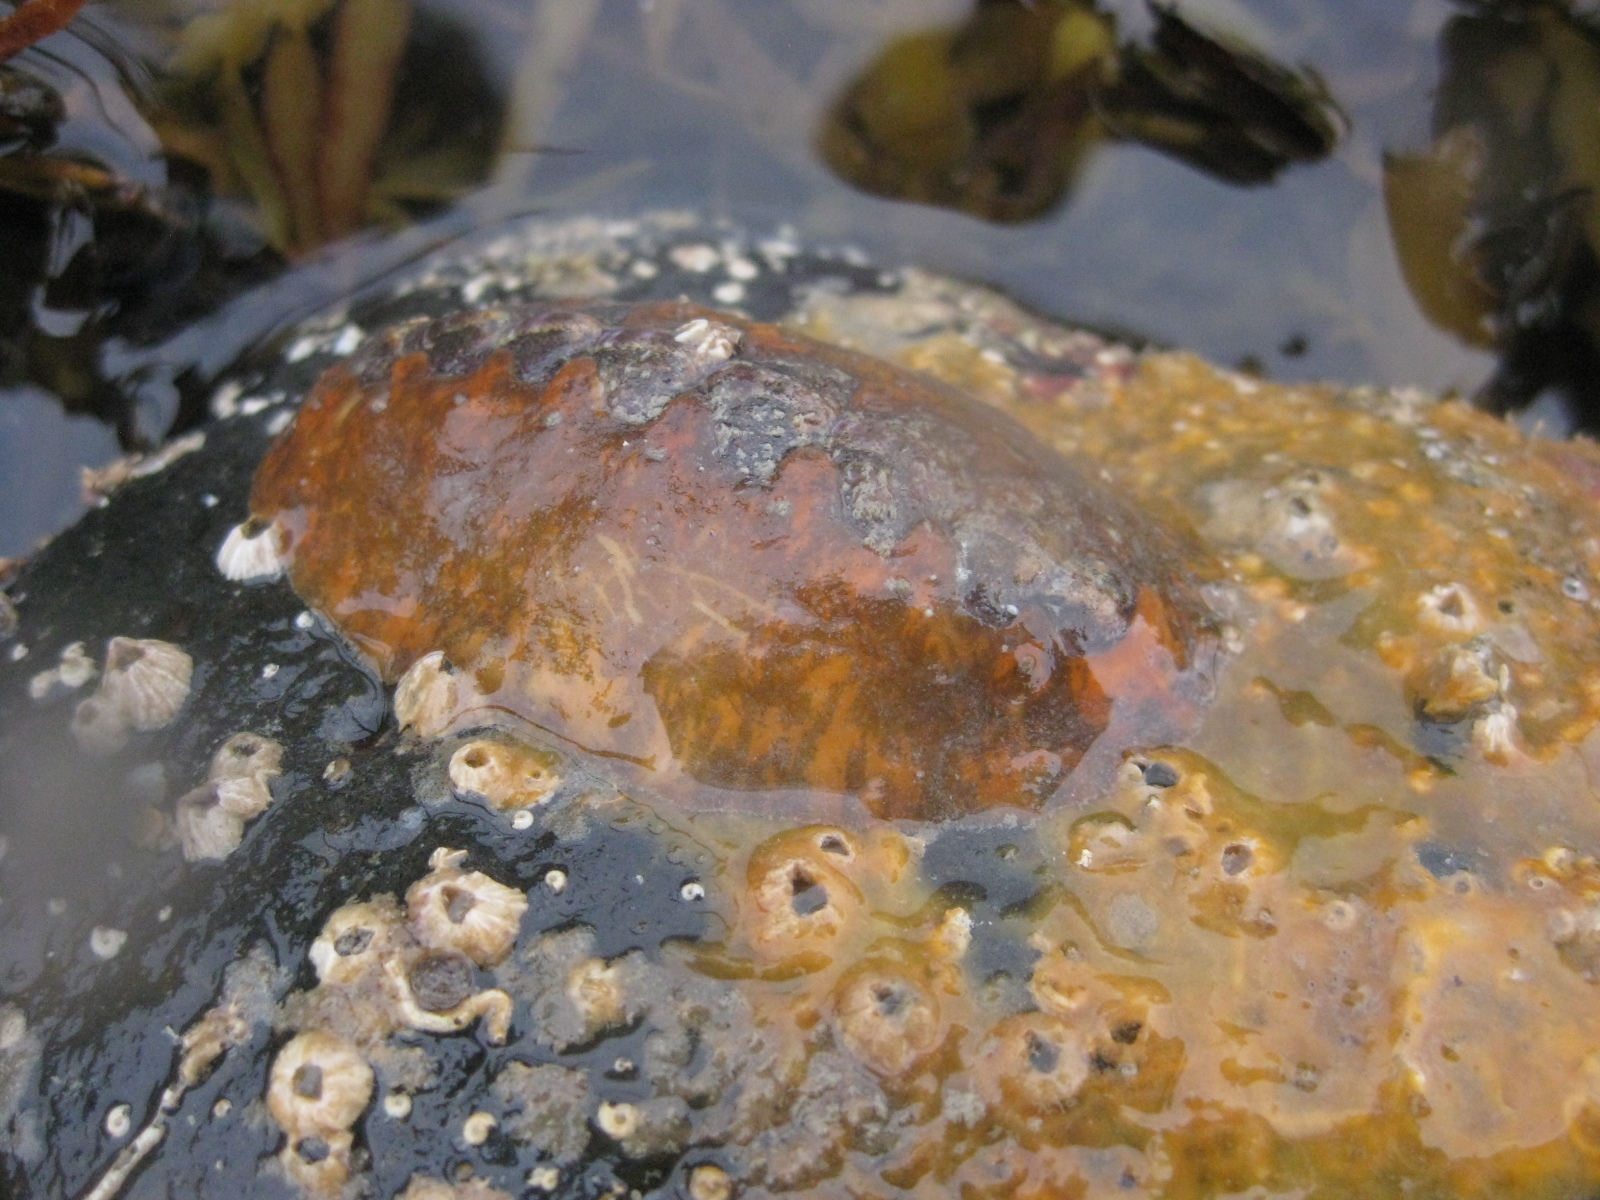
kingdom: Animalia
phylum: Mollusca
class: Polyplacophora
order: Chitonida
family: Acanthochitonidae
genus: Notoplax
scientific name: Notoplax violacea
